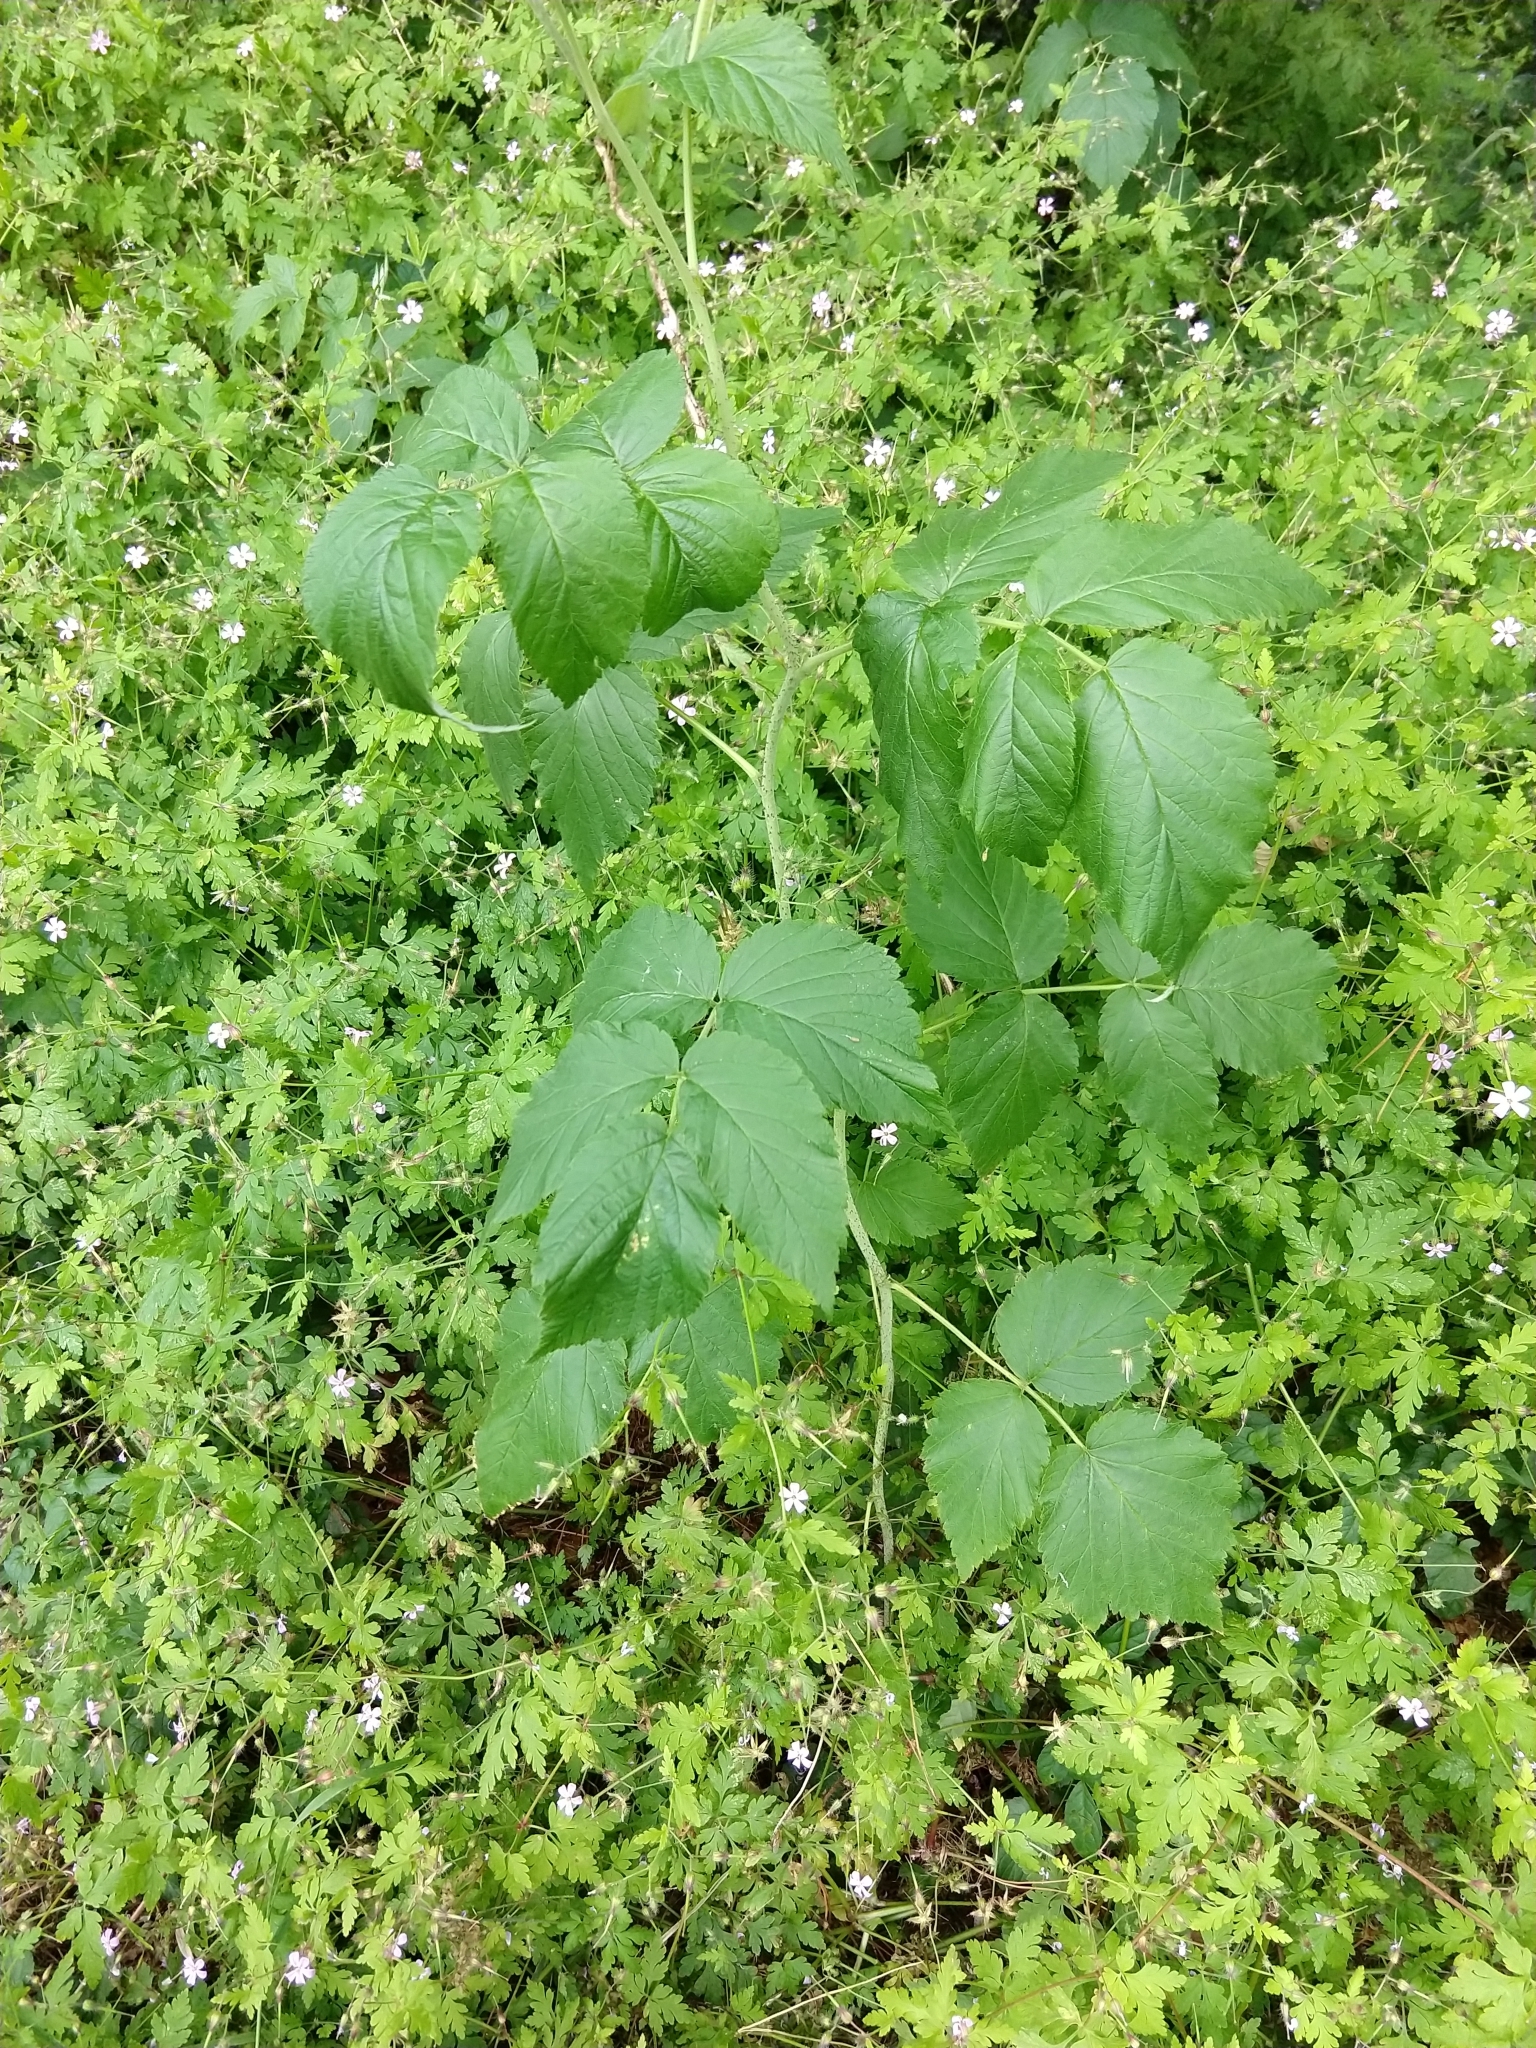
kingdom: Plantae
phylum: Tracheophyta
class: Magnoliopsida
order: Rosales
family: Rosaceae
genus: Rubus
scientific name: Rubus idaeus
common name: Raspberry
